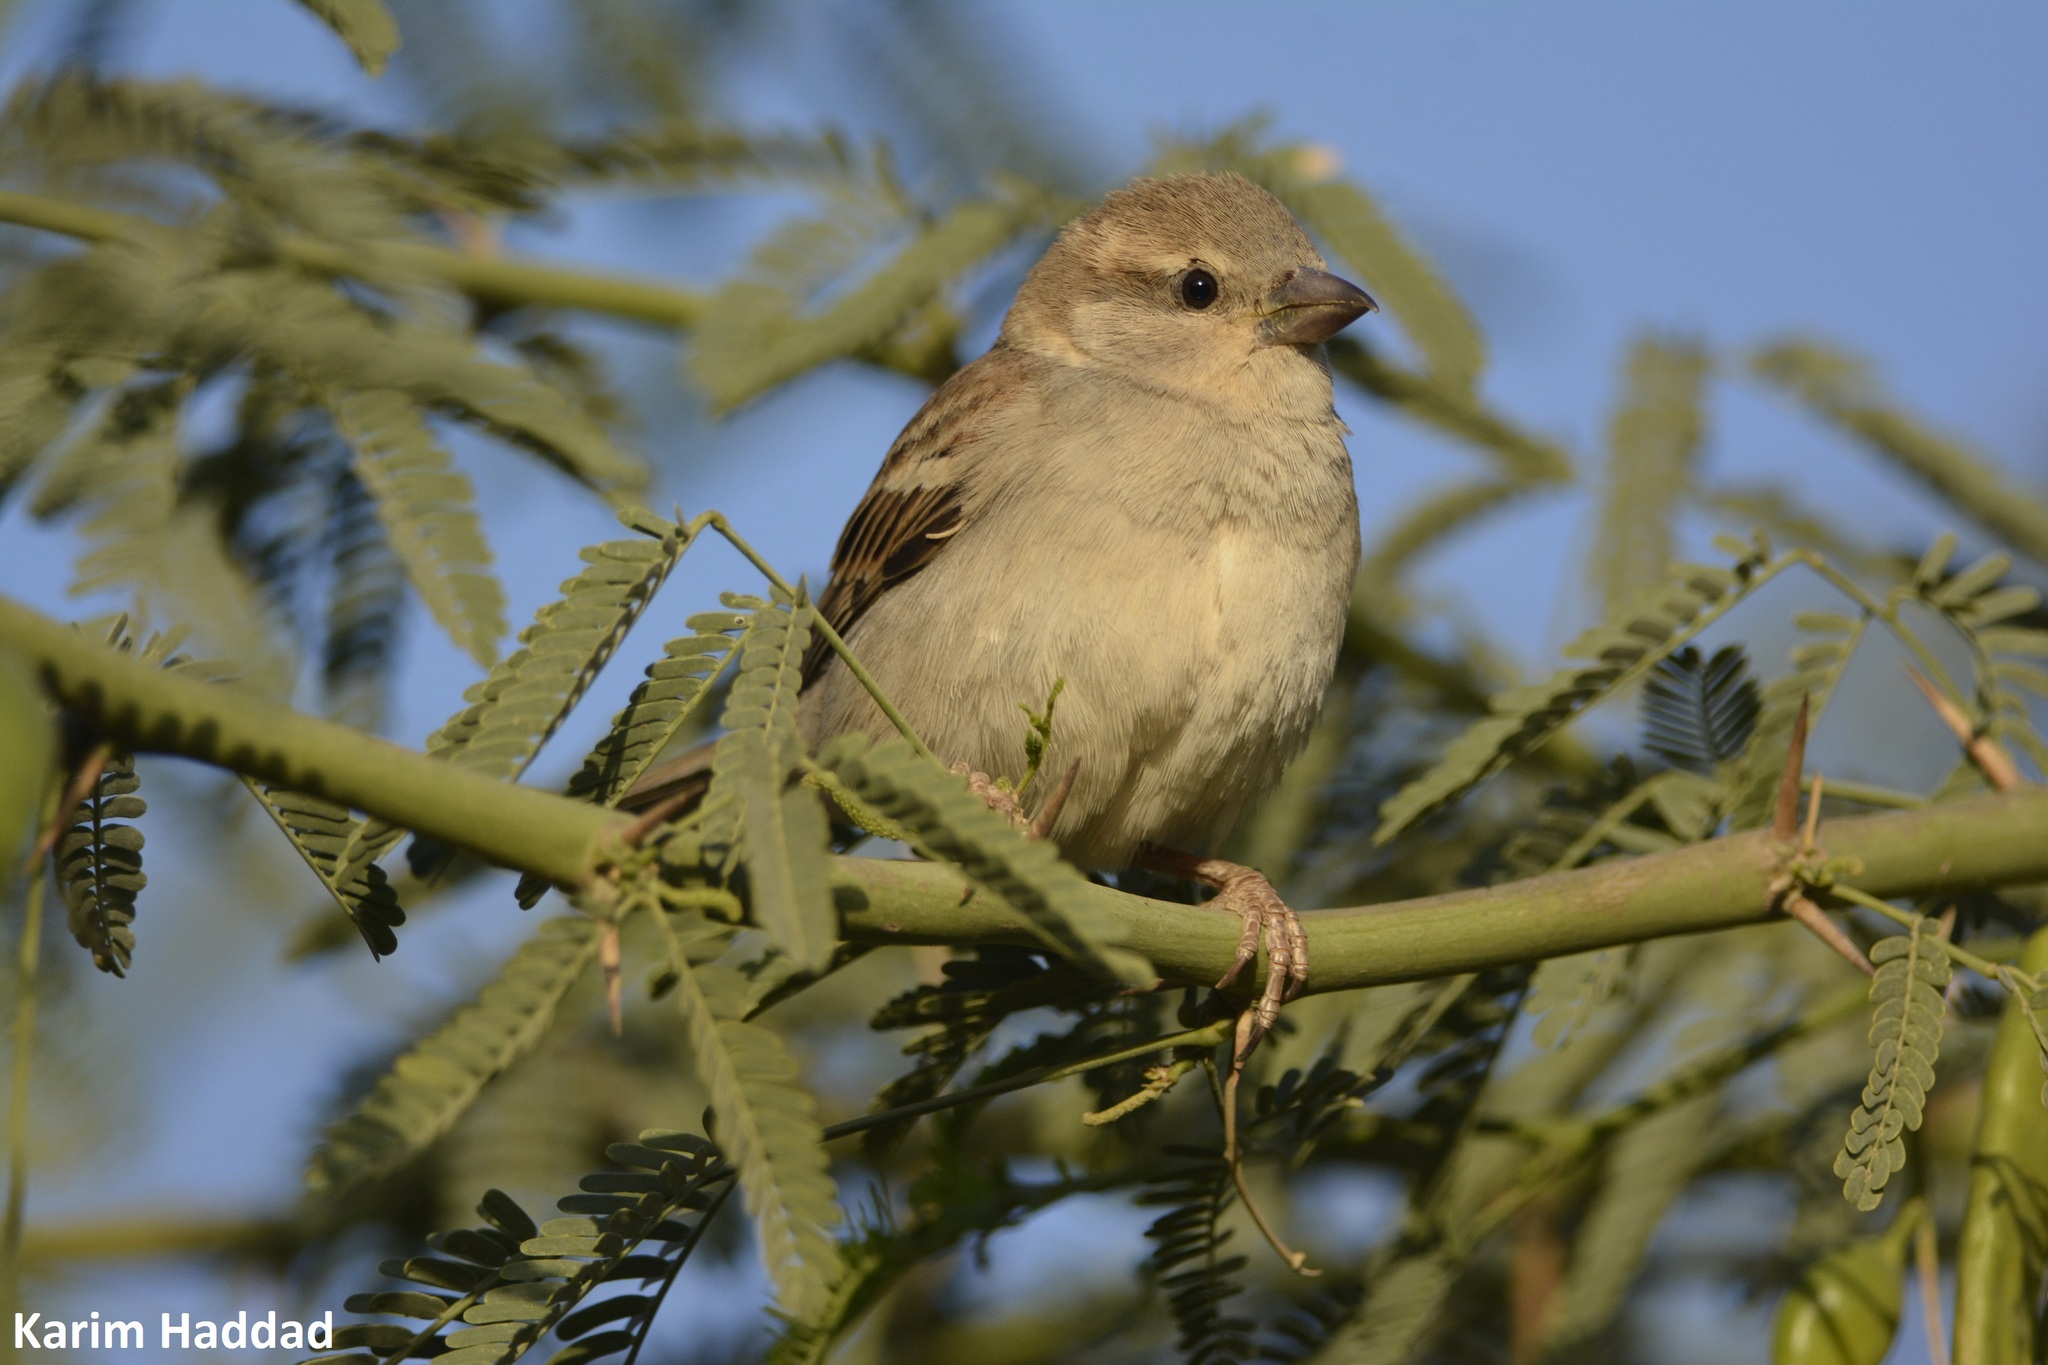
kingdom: Animalia
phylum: Chordata
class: Aves
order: Passeriformes
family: Passeridae
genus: Passer
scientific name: Passer domesticus
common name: House sparrow
